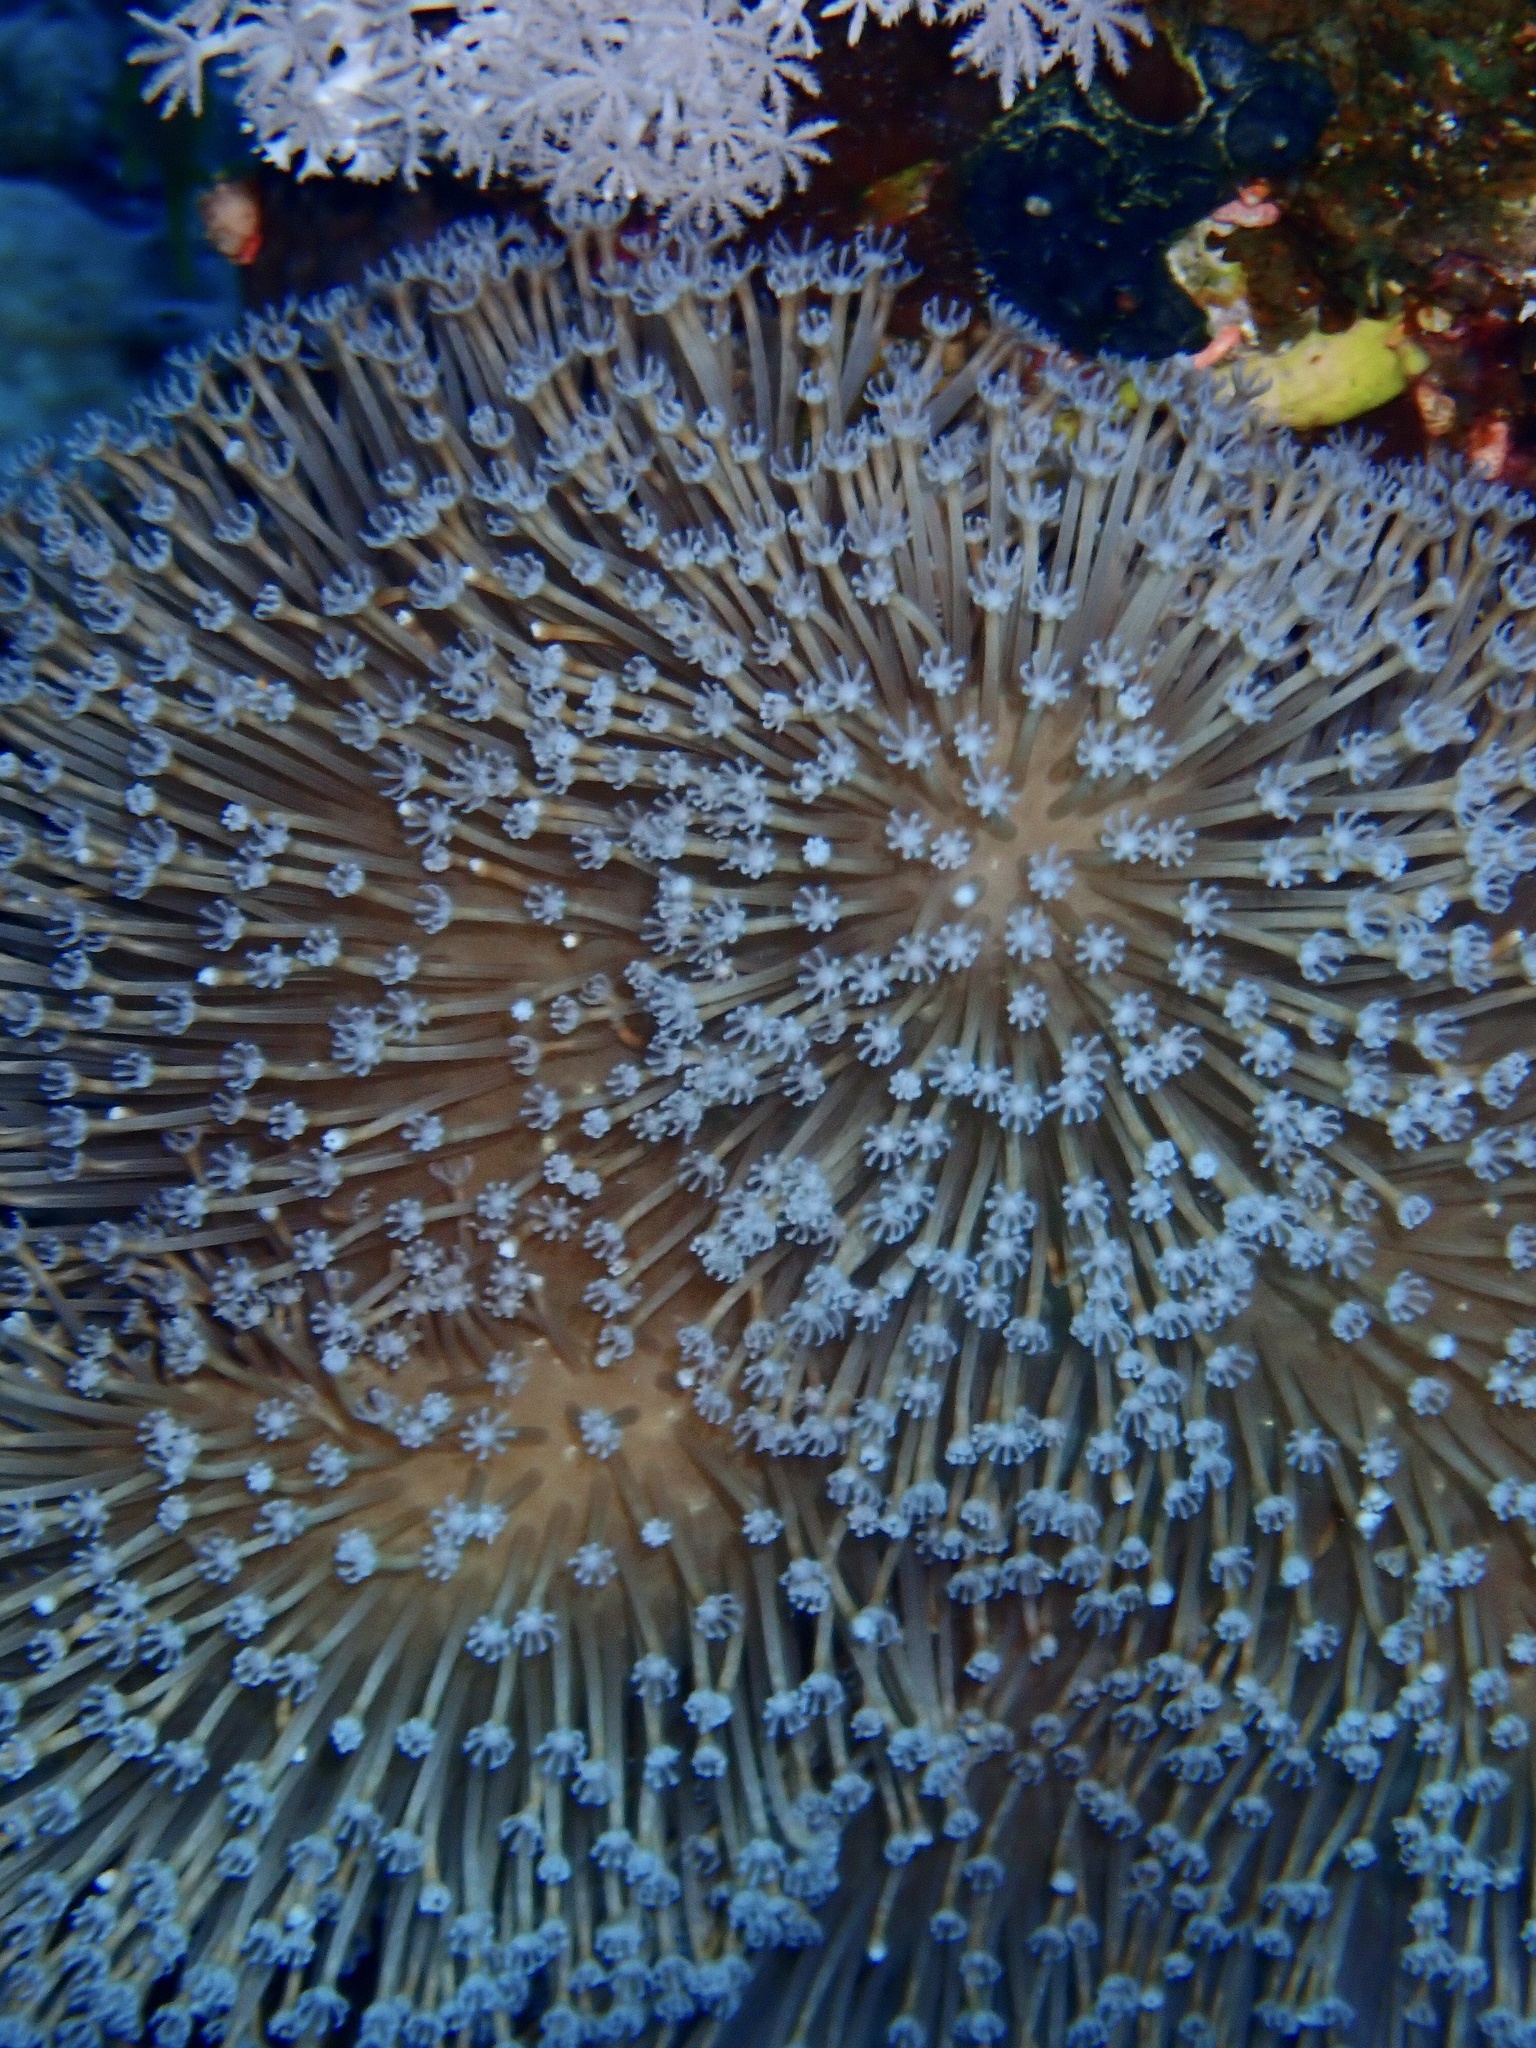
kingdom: Animalia
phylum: Cnidaria
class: Anthozoa
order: Malacalcyonacea
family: Sarcophytidae
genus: Sarcophyton
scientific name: Sarcophyton
